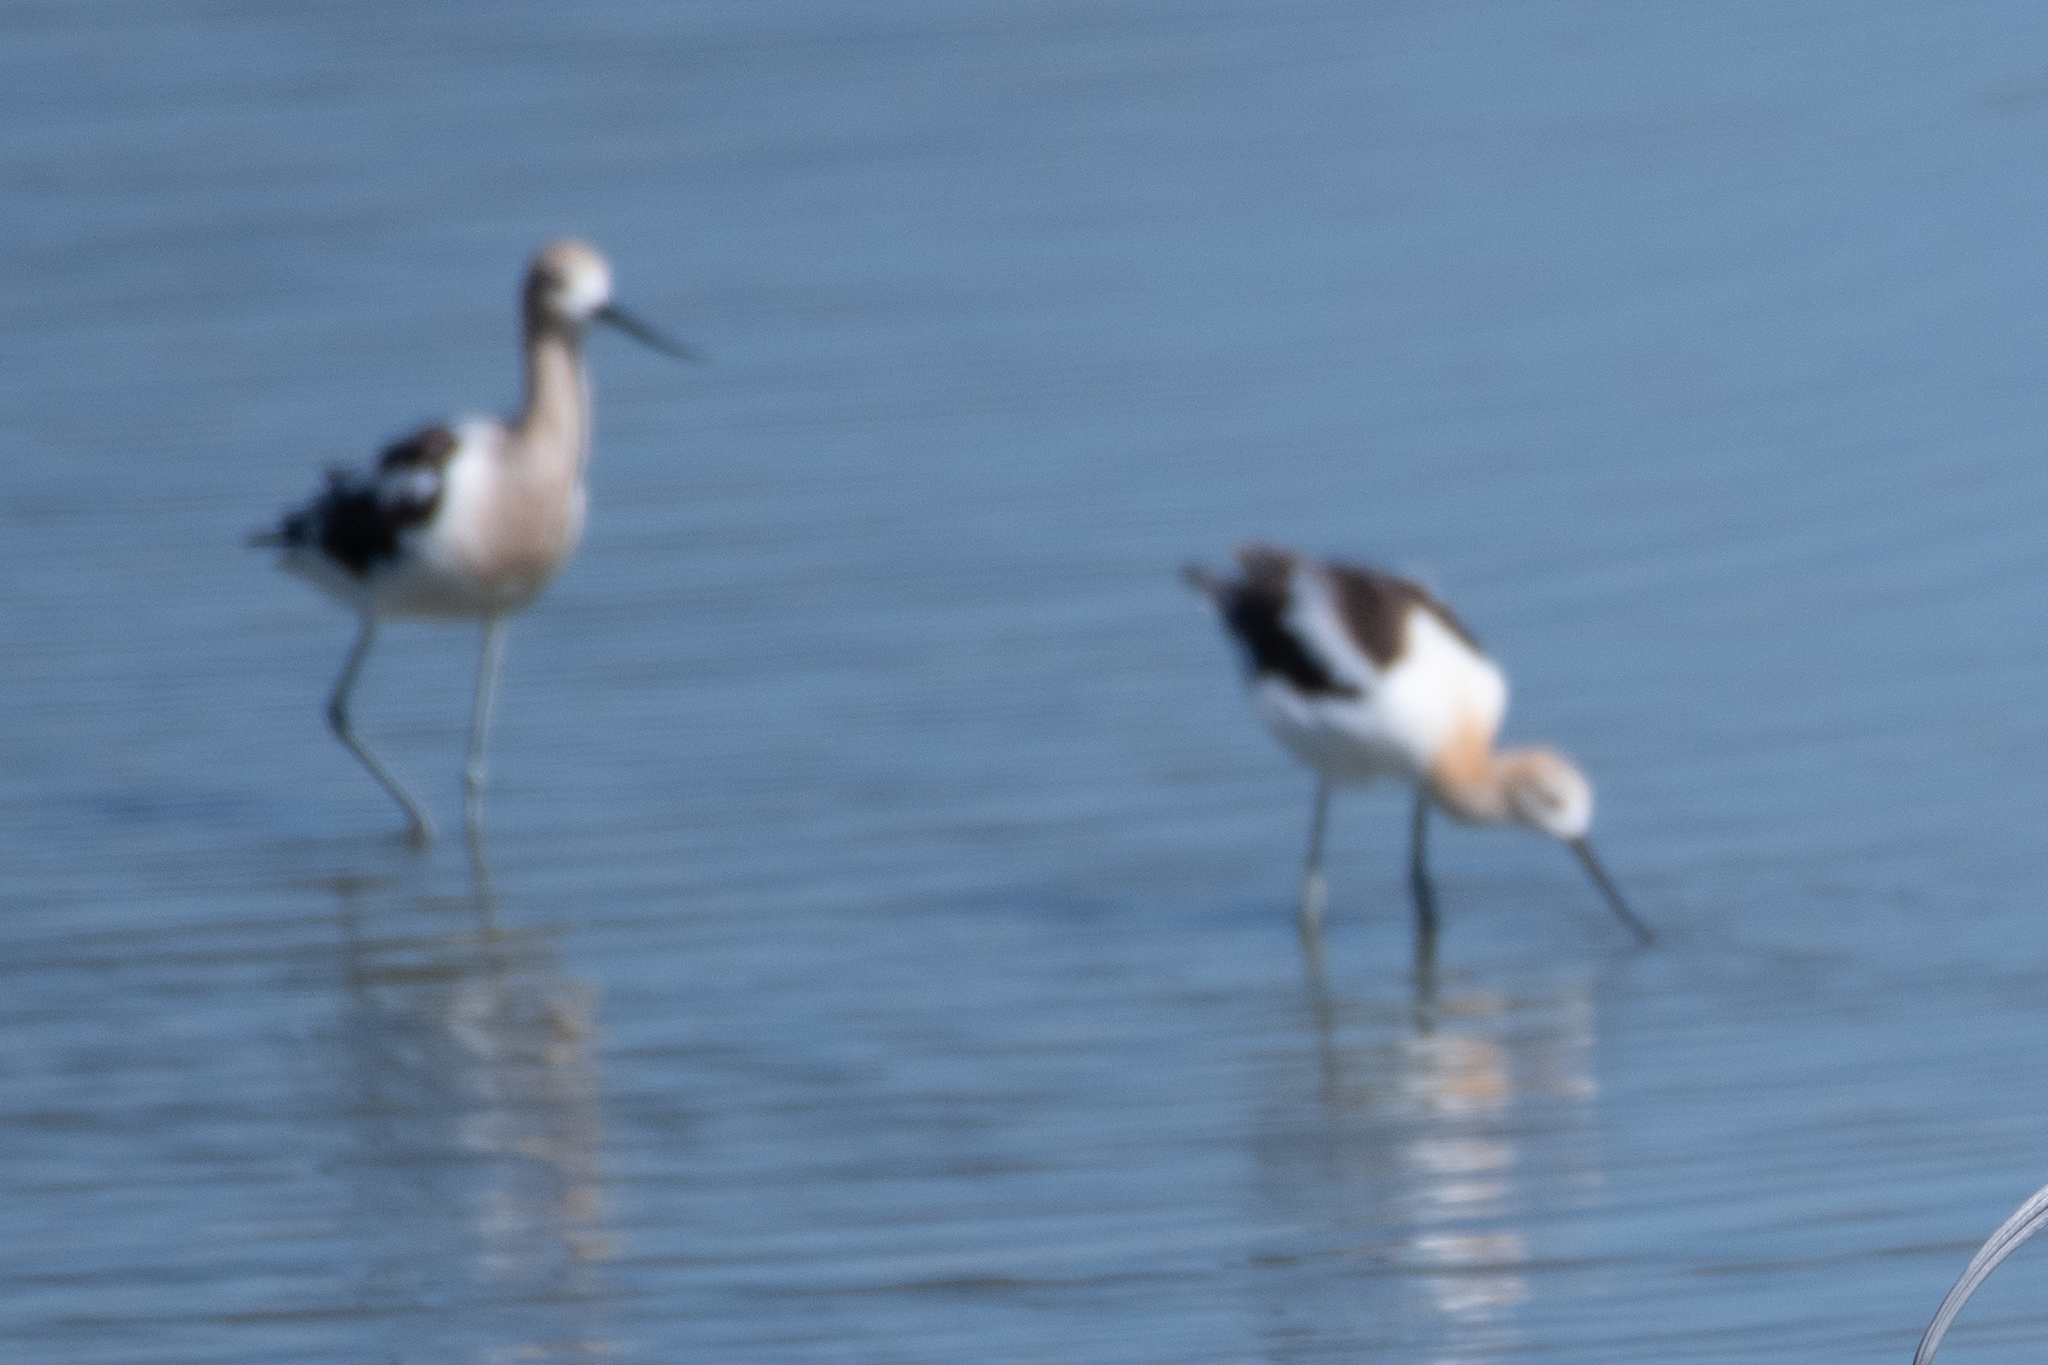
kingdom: Animalia
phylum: Chordata
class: Aves
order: Charadriiformes
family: Recurvirostridae
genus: Recurvirostra
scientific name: Recurvirostra americana
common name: American avocet
